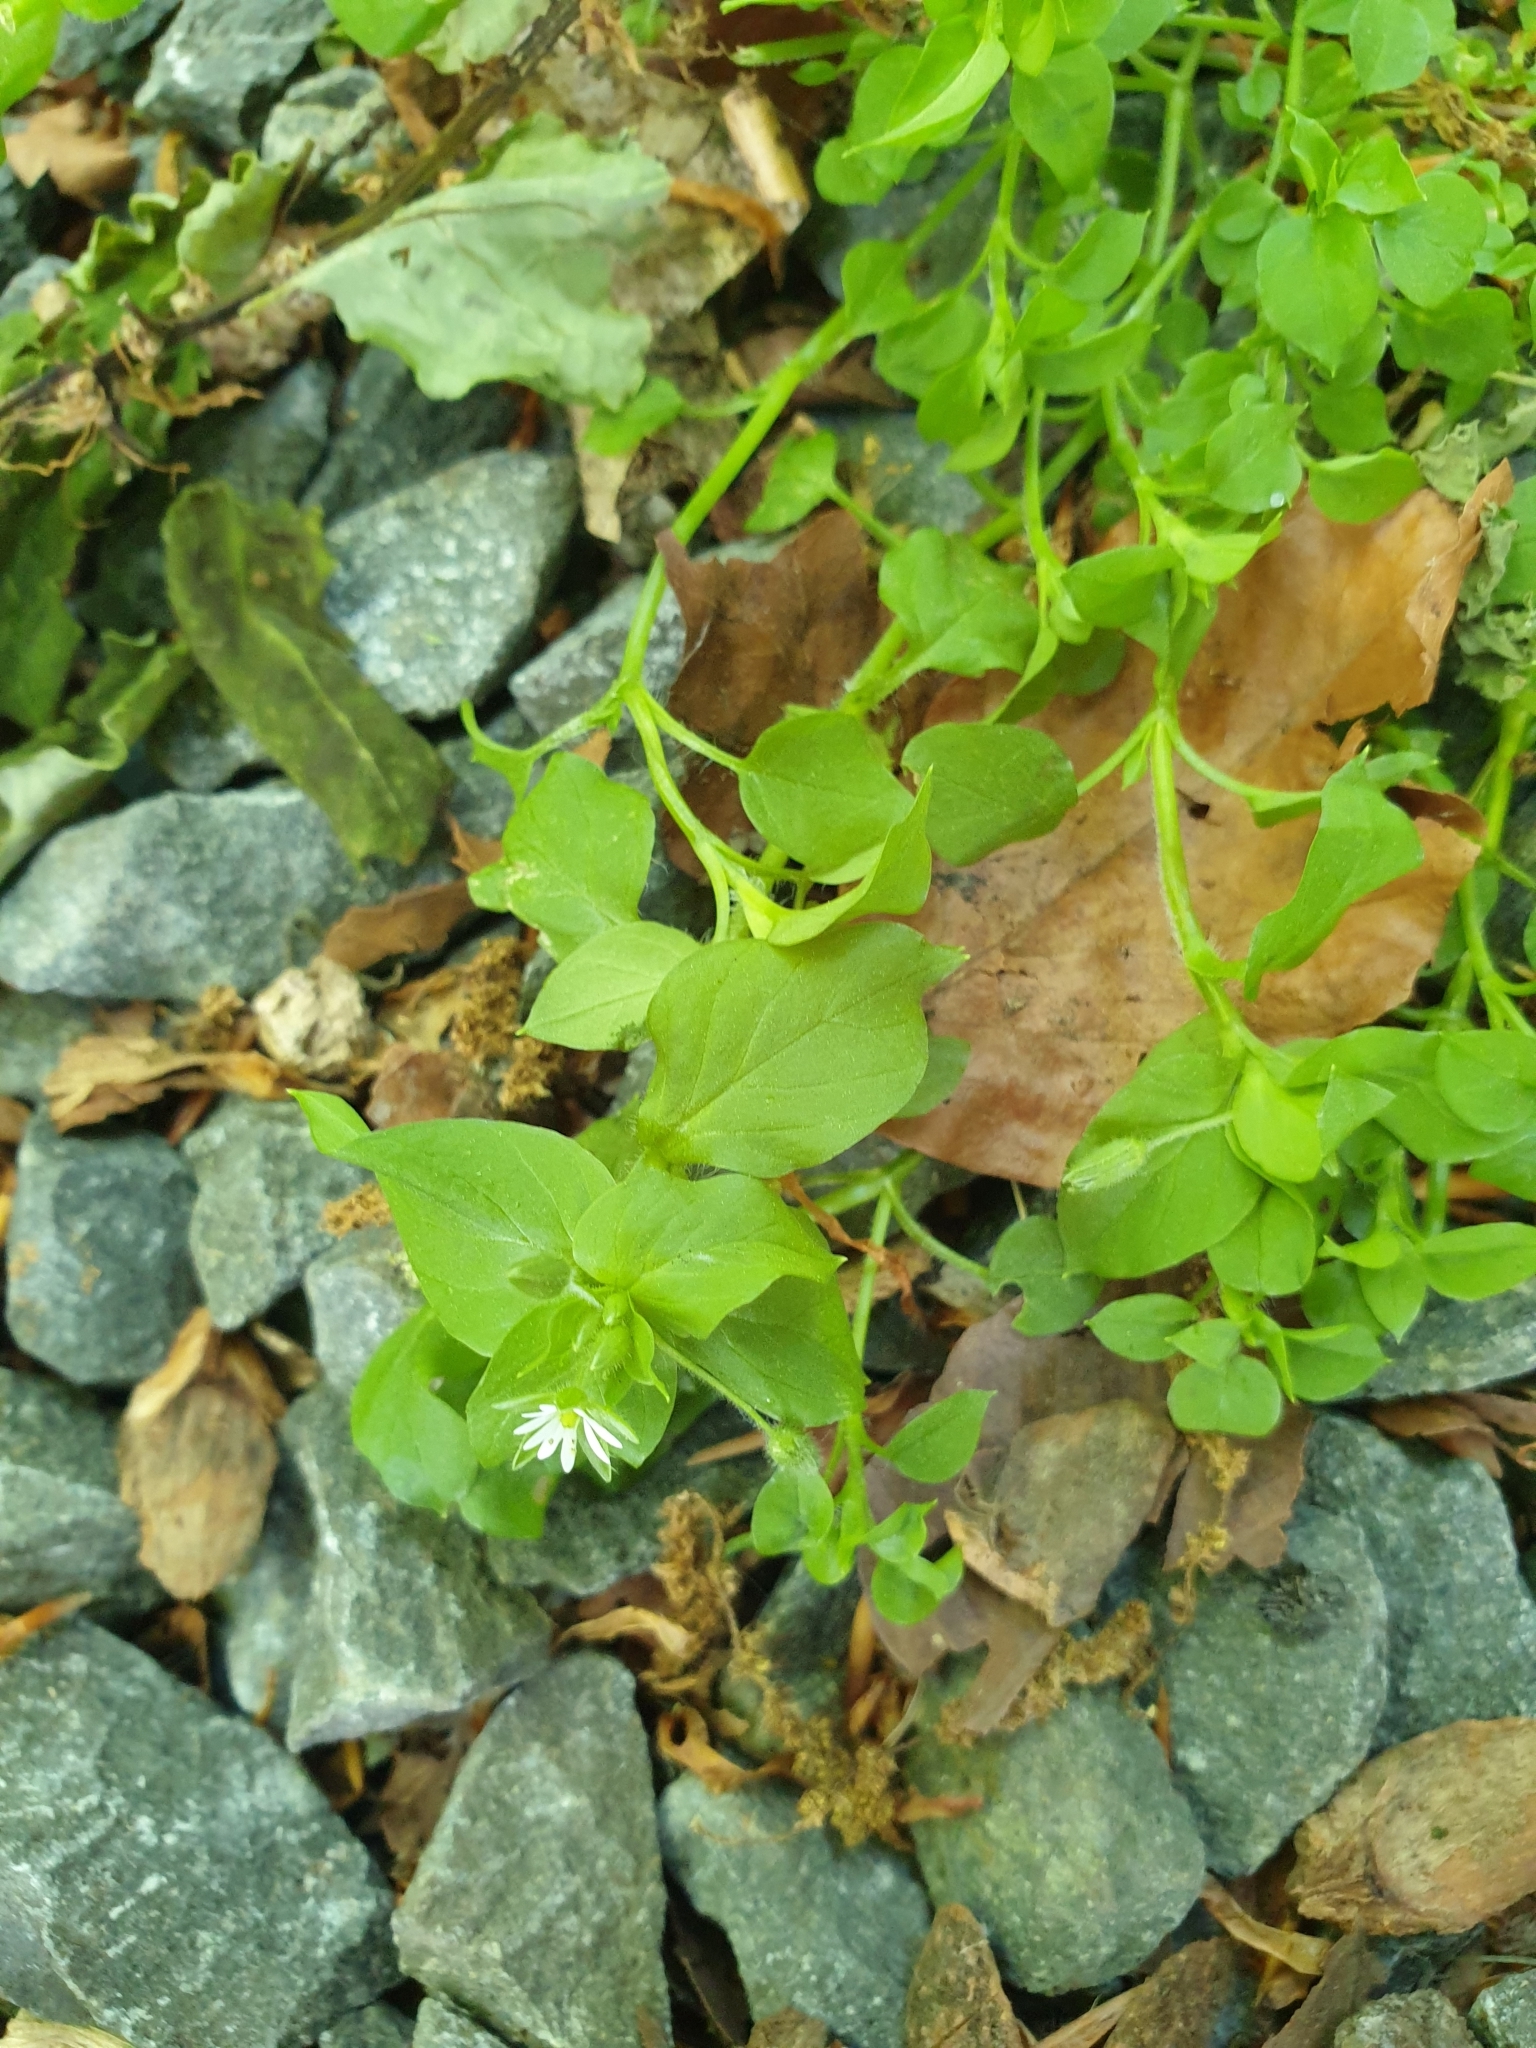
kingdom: Plantae
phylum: Tracheophyta
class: Magnoliopsida
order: Caryophyllales
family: Caryophyllaceae
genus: Stellaria
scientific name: Stellaria media
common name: Common chickweed
